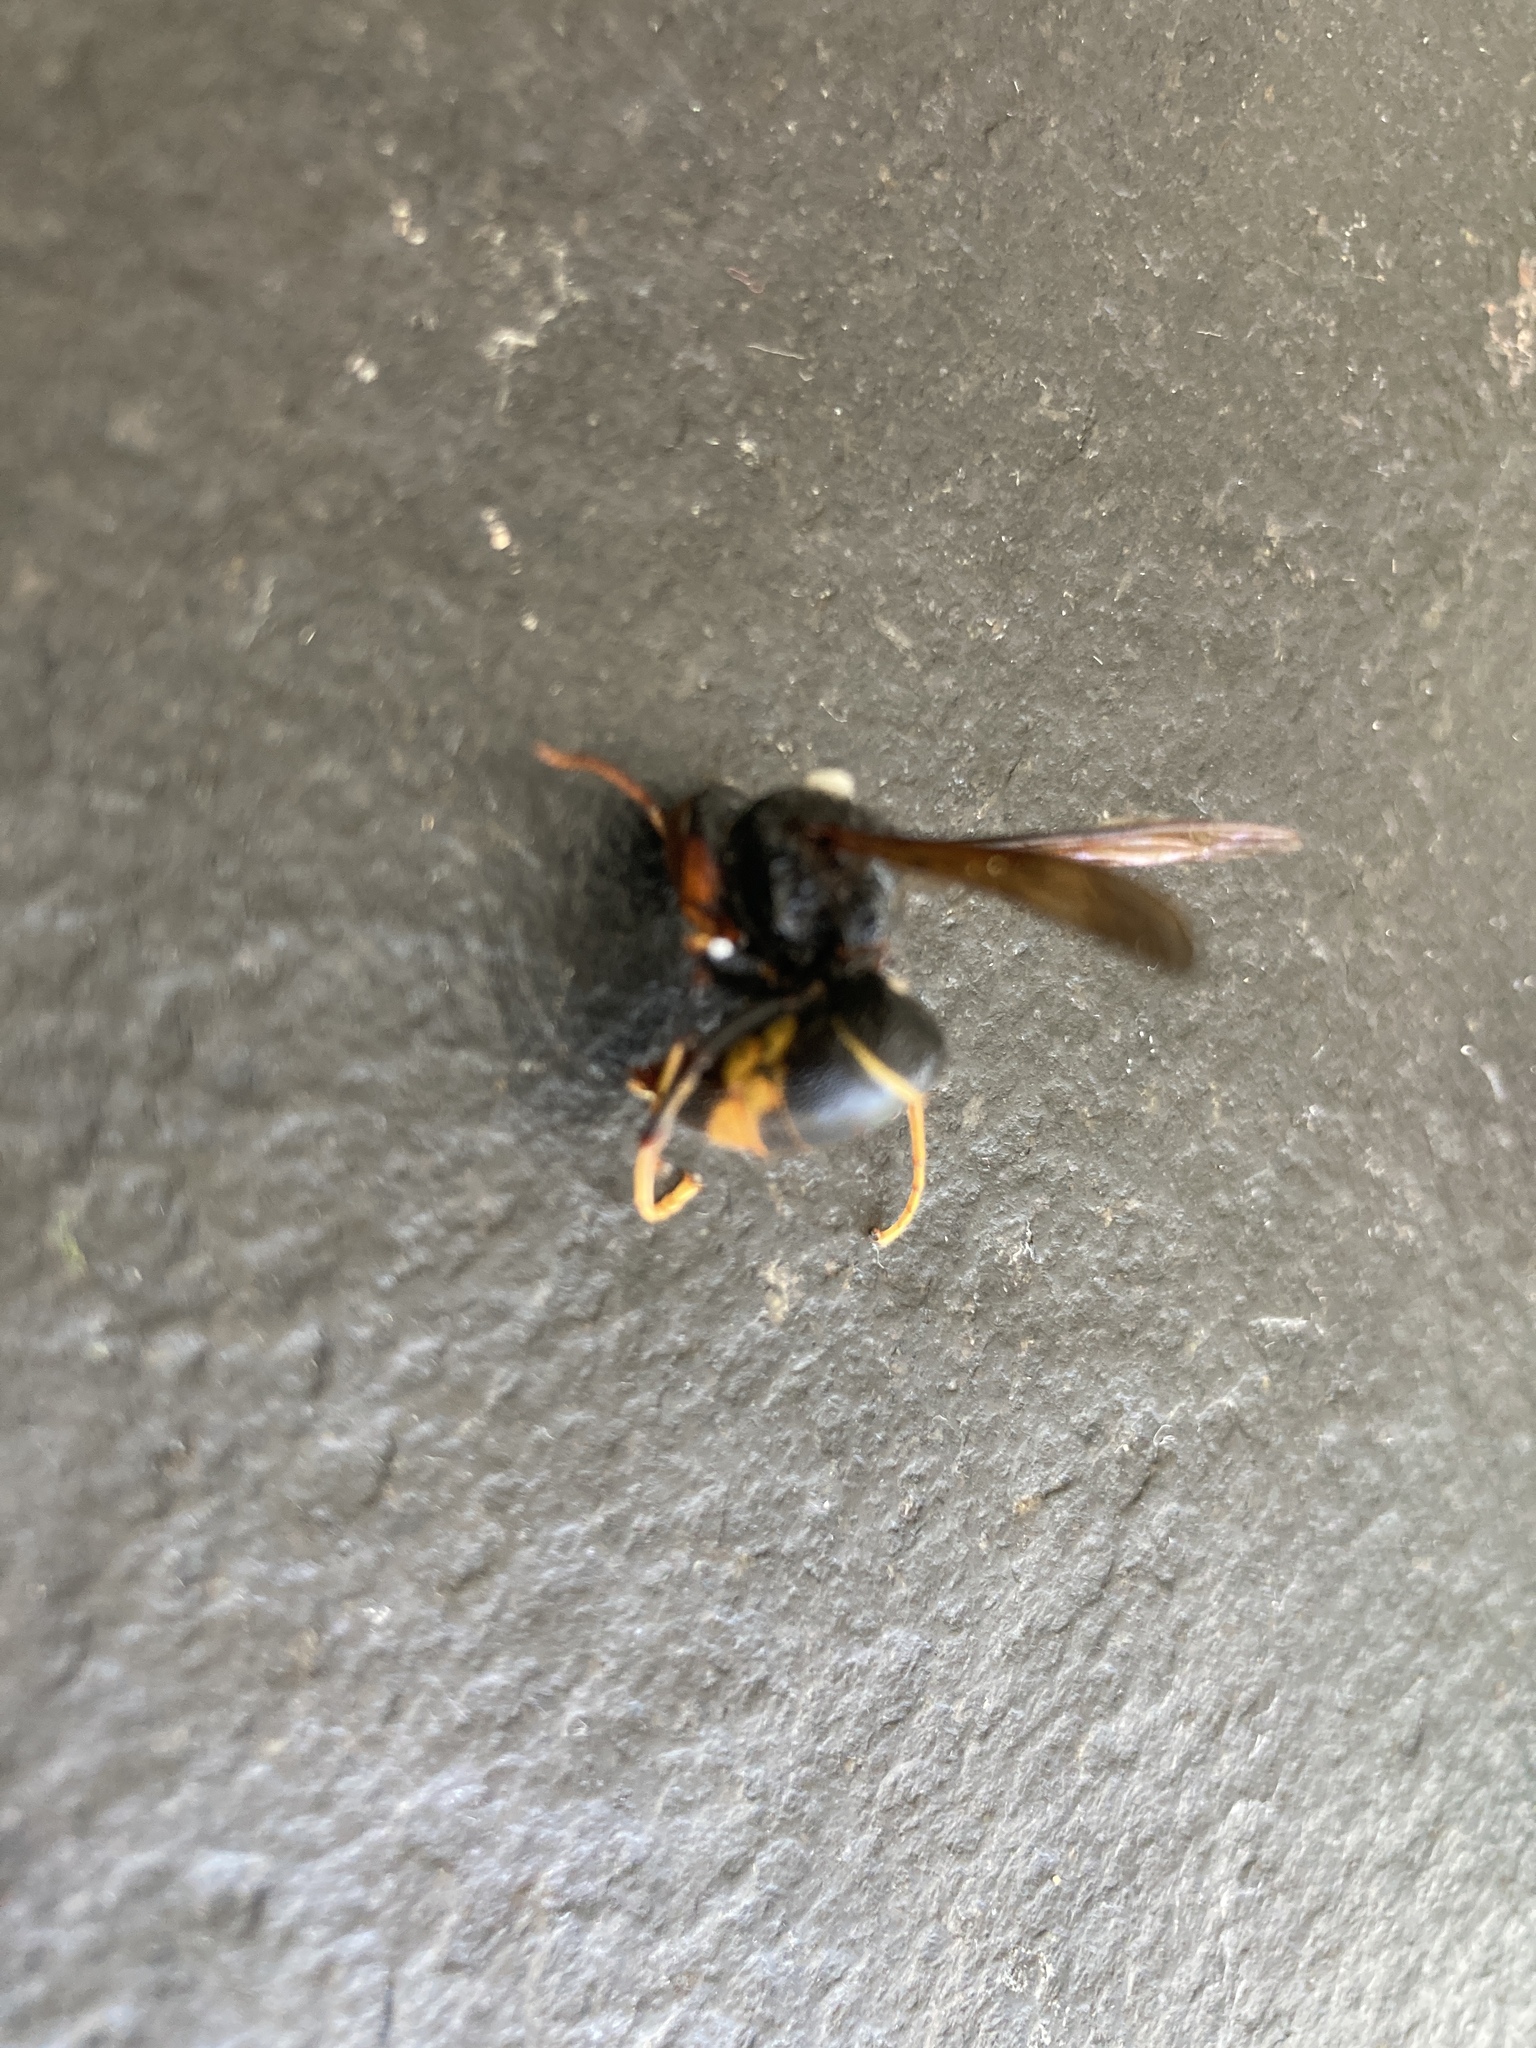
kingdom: Animalia
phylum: Arthropoda
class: Insecta
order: Hymenoptera
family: Vespidae
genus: Vespa
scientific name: Vespa velutina
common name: Asian hornet
